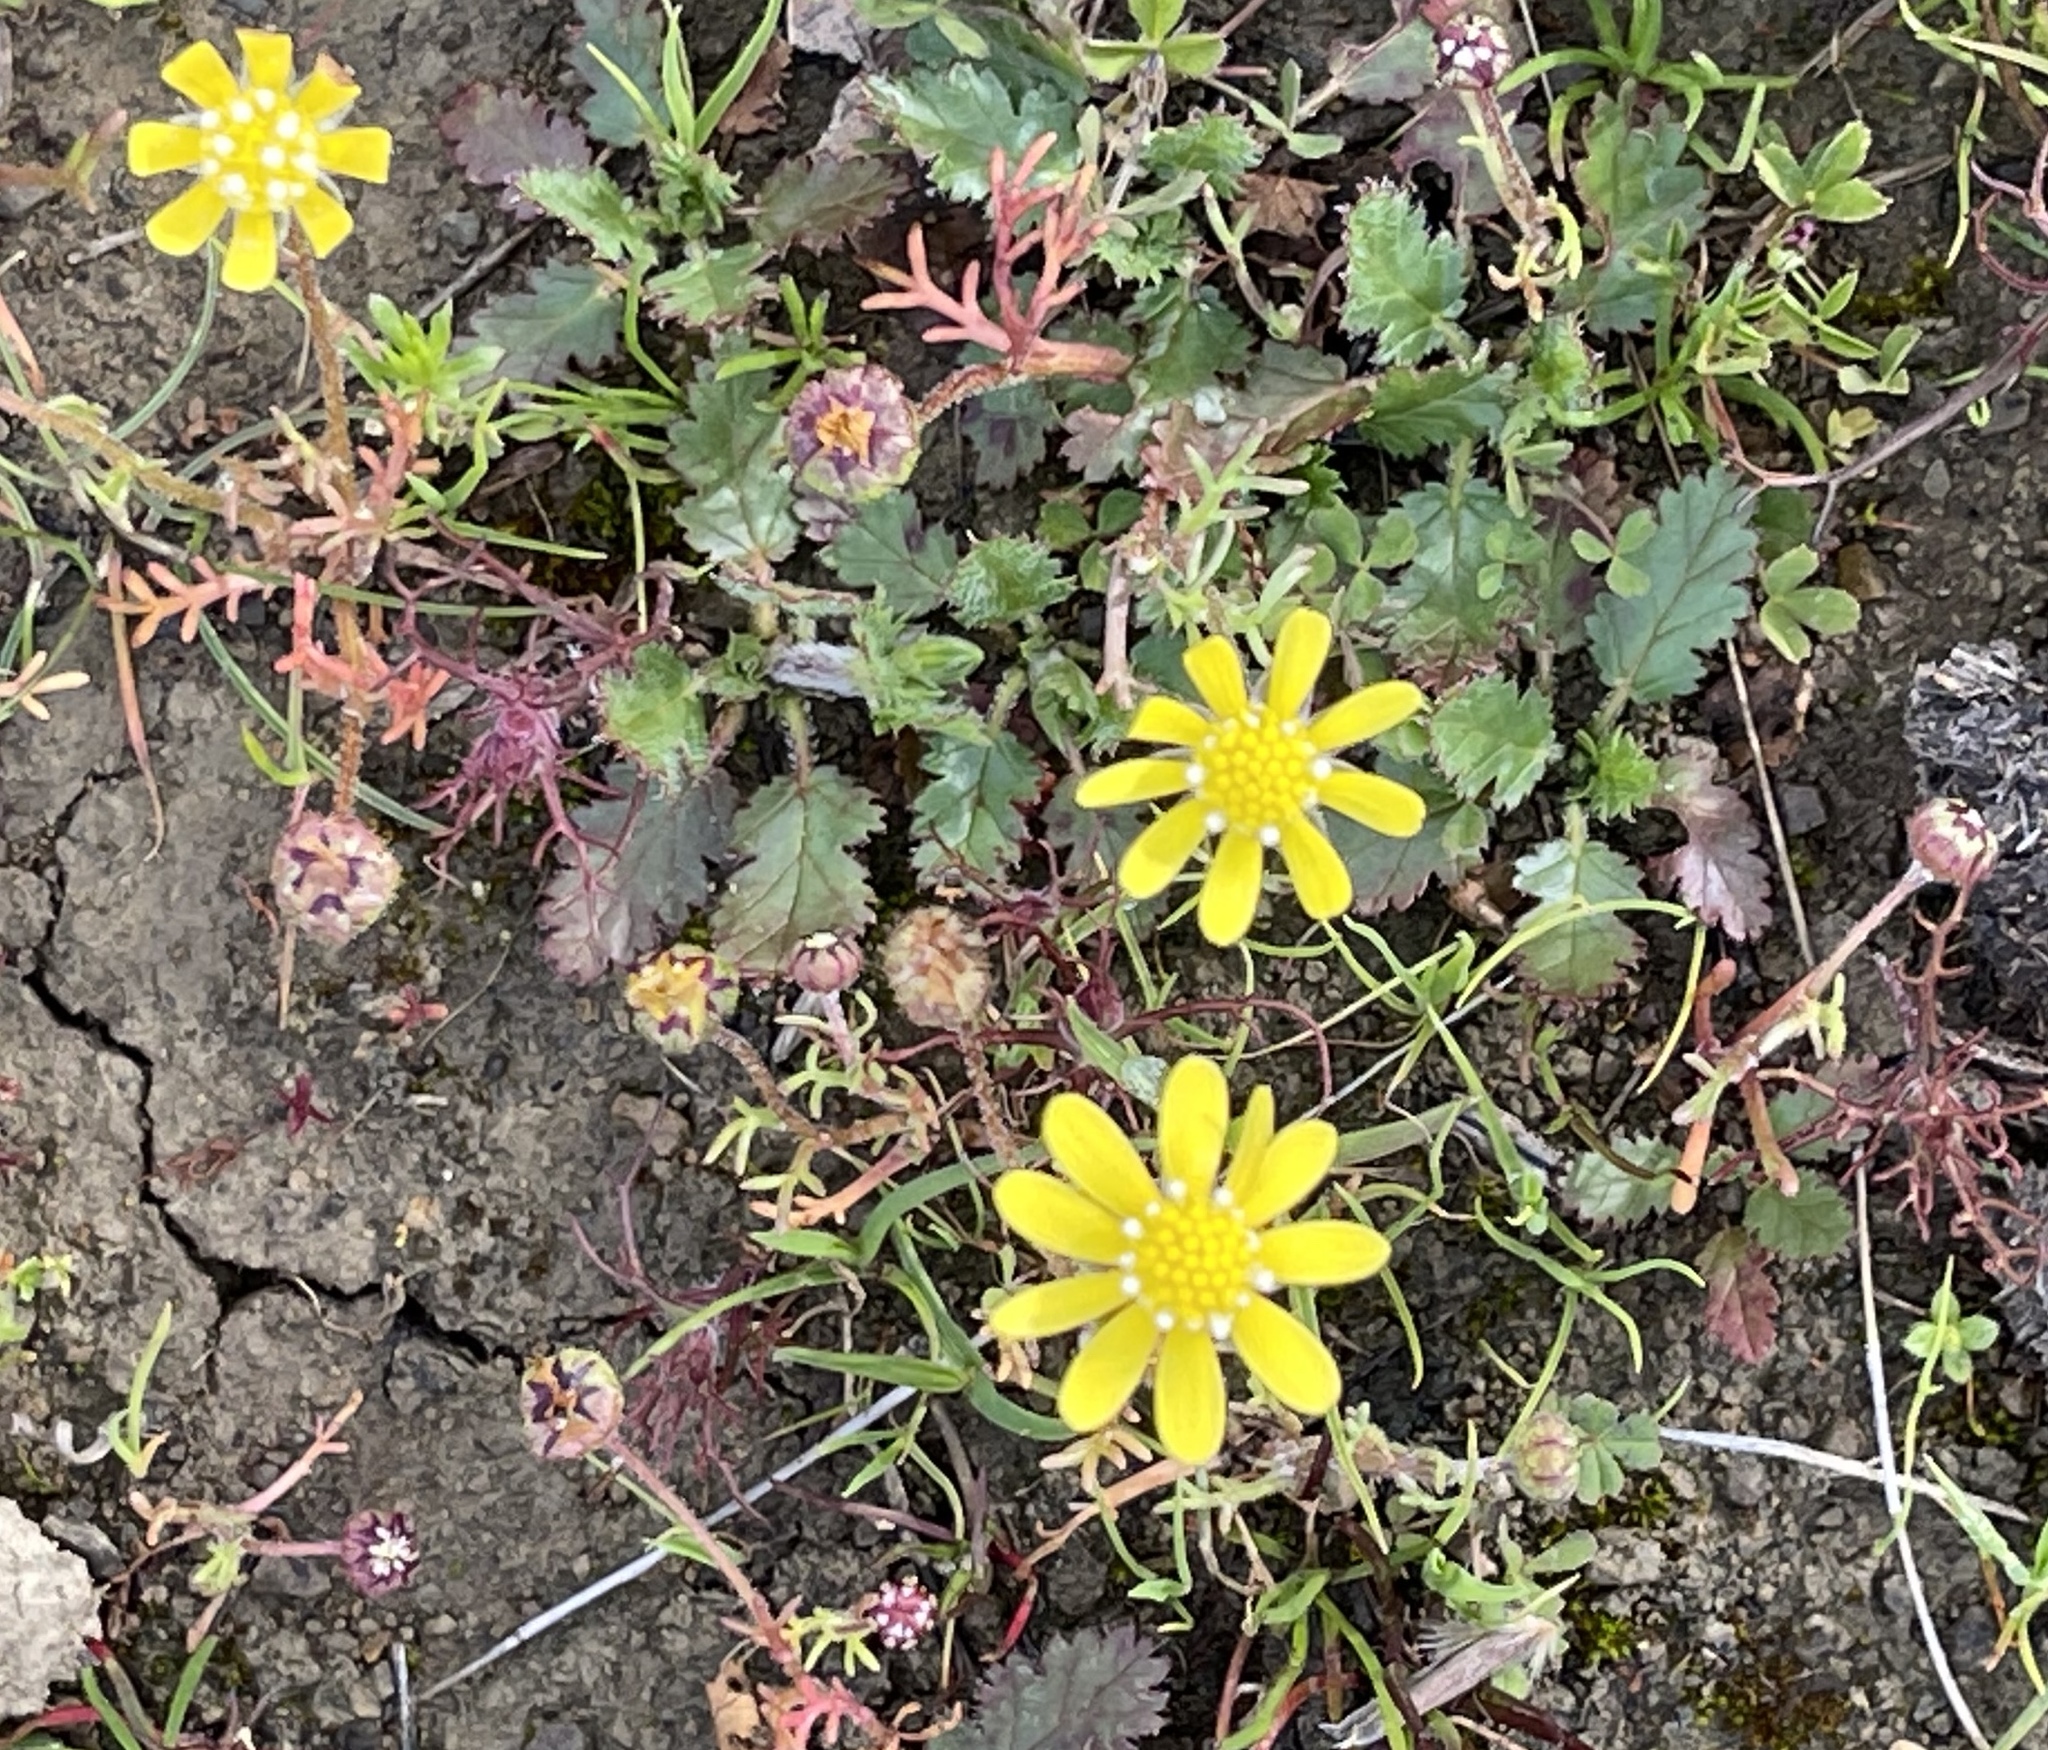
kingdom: Plantae
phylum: Tracheophyta
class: Magnoliopsida
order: Asterales
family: Asteraceae
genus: Blennosperma
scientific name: Blennosperma nanum
